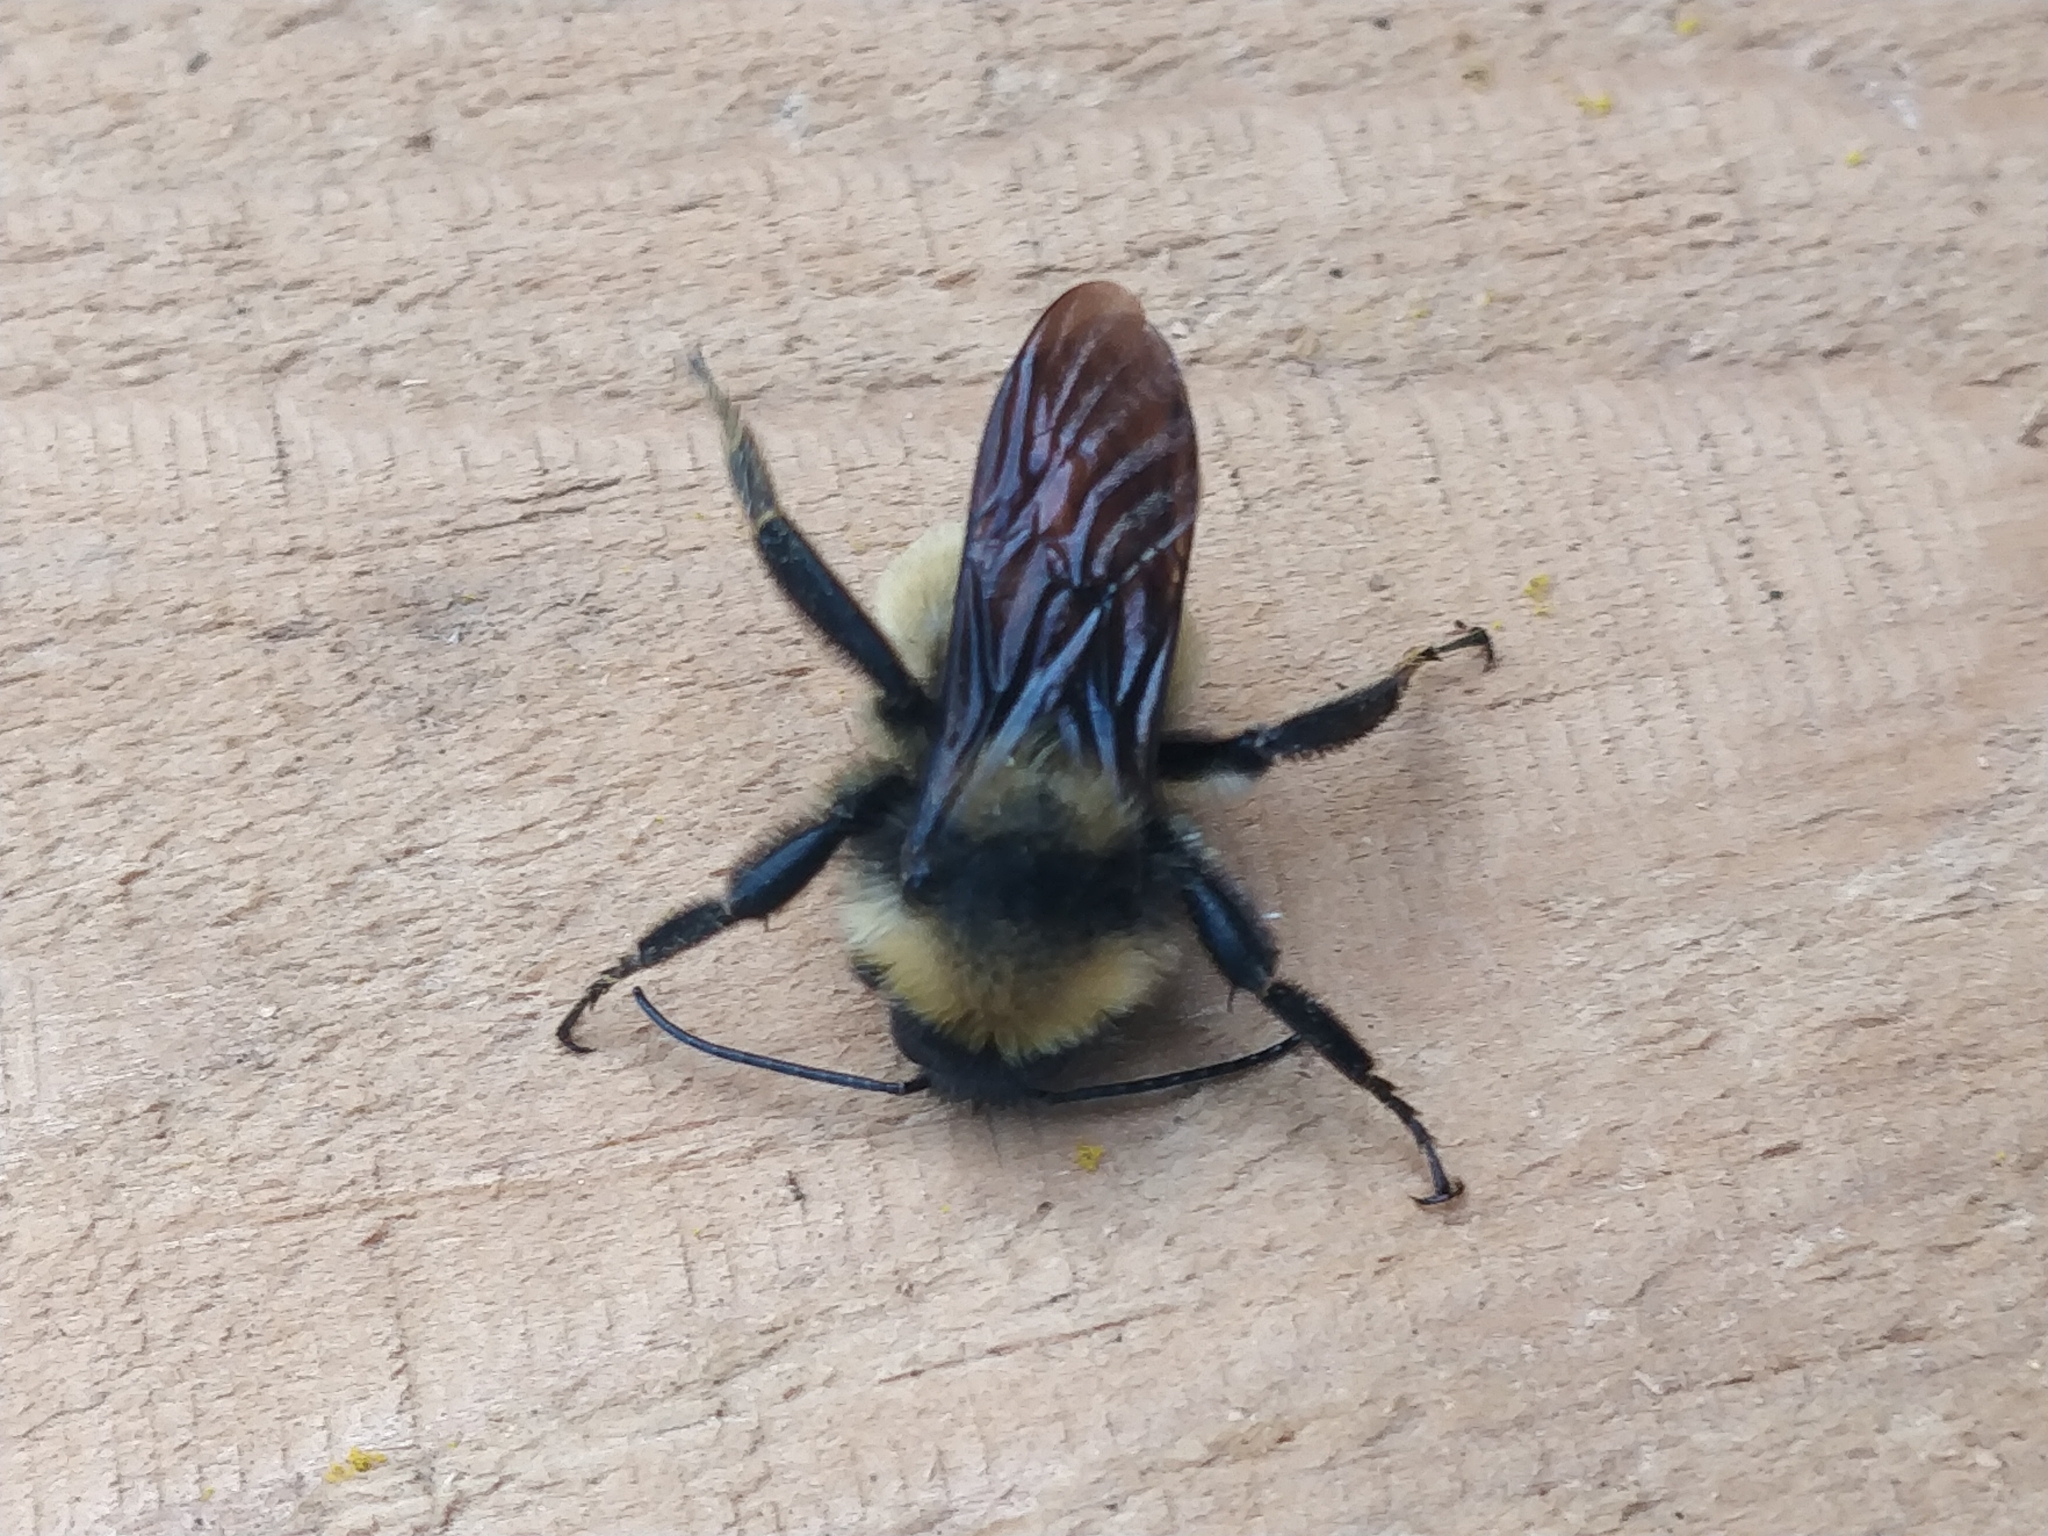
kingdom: Animalia
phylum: Arthropoda
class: Insecta
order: Hymenoptera
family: Apidae
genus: Bombus
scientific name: Bombus pensylvanicus
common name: Bumble bee
